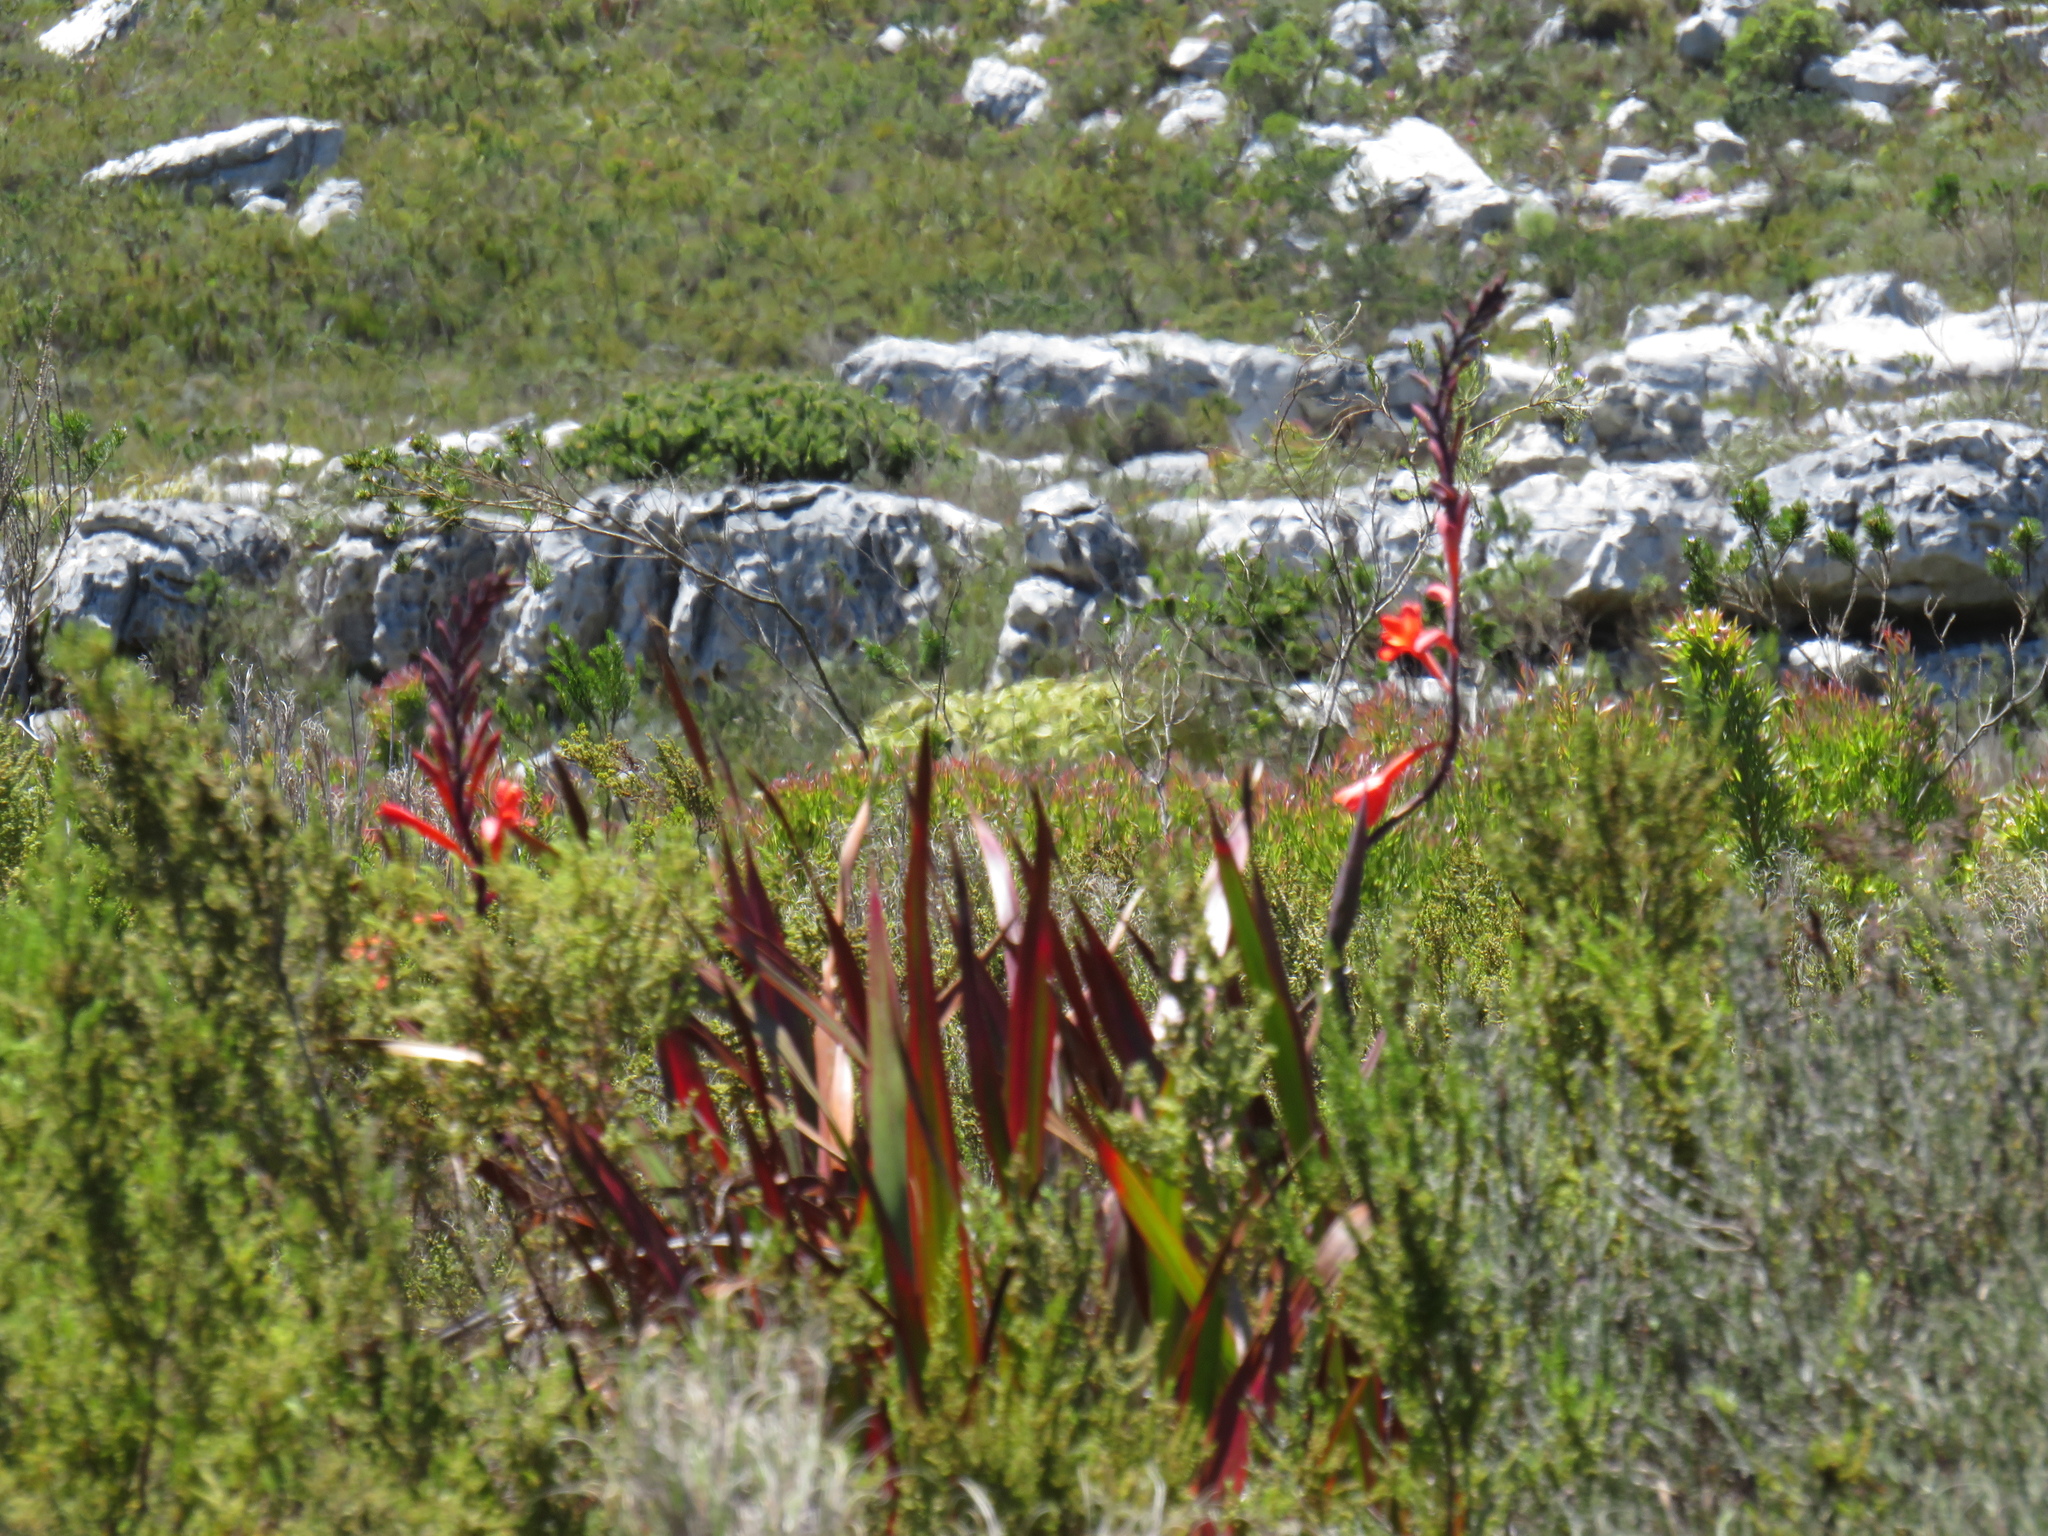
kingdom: Plantae
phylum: Tracheophyta
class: Liliopsida
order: Asparagales
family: Iridaceae
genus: Watsonia
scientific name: Watsonia tabularis
